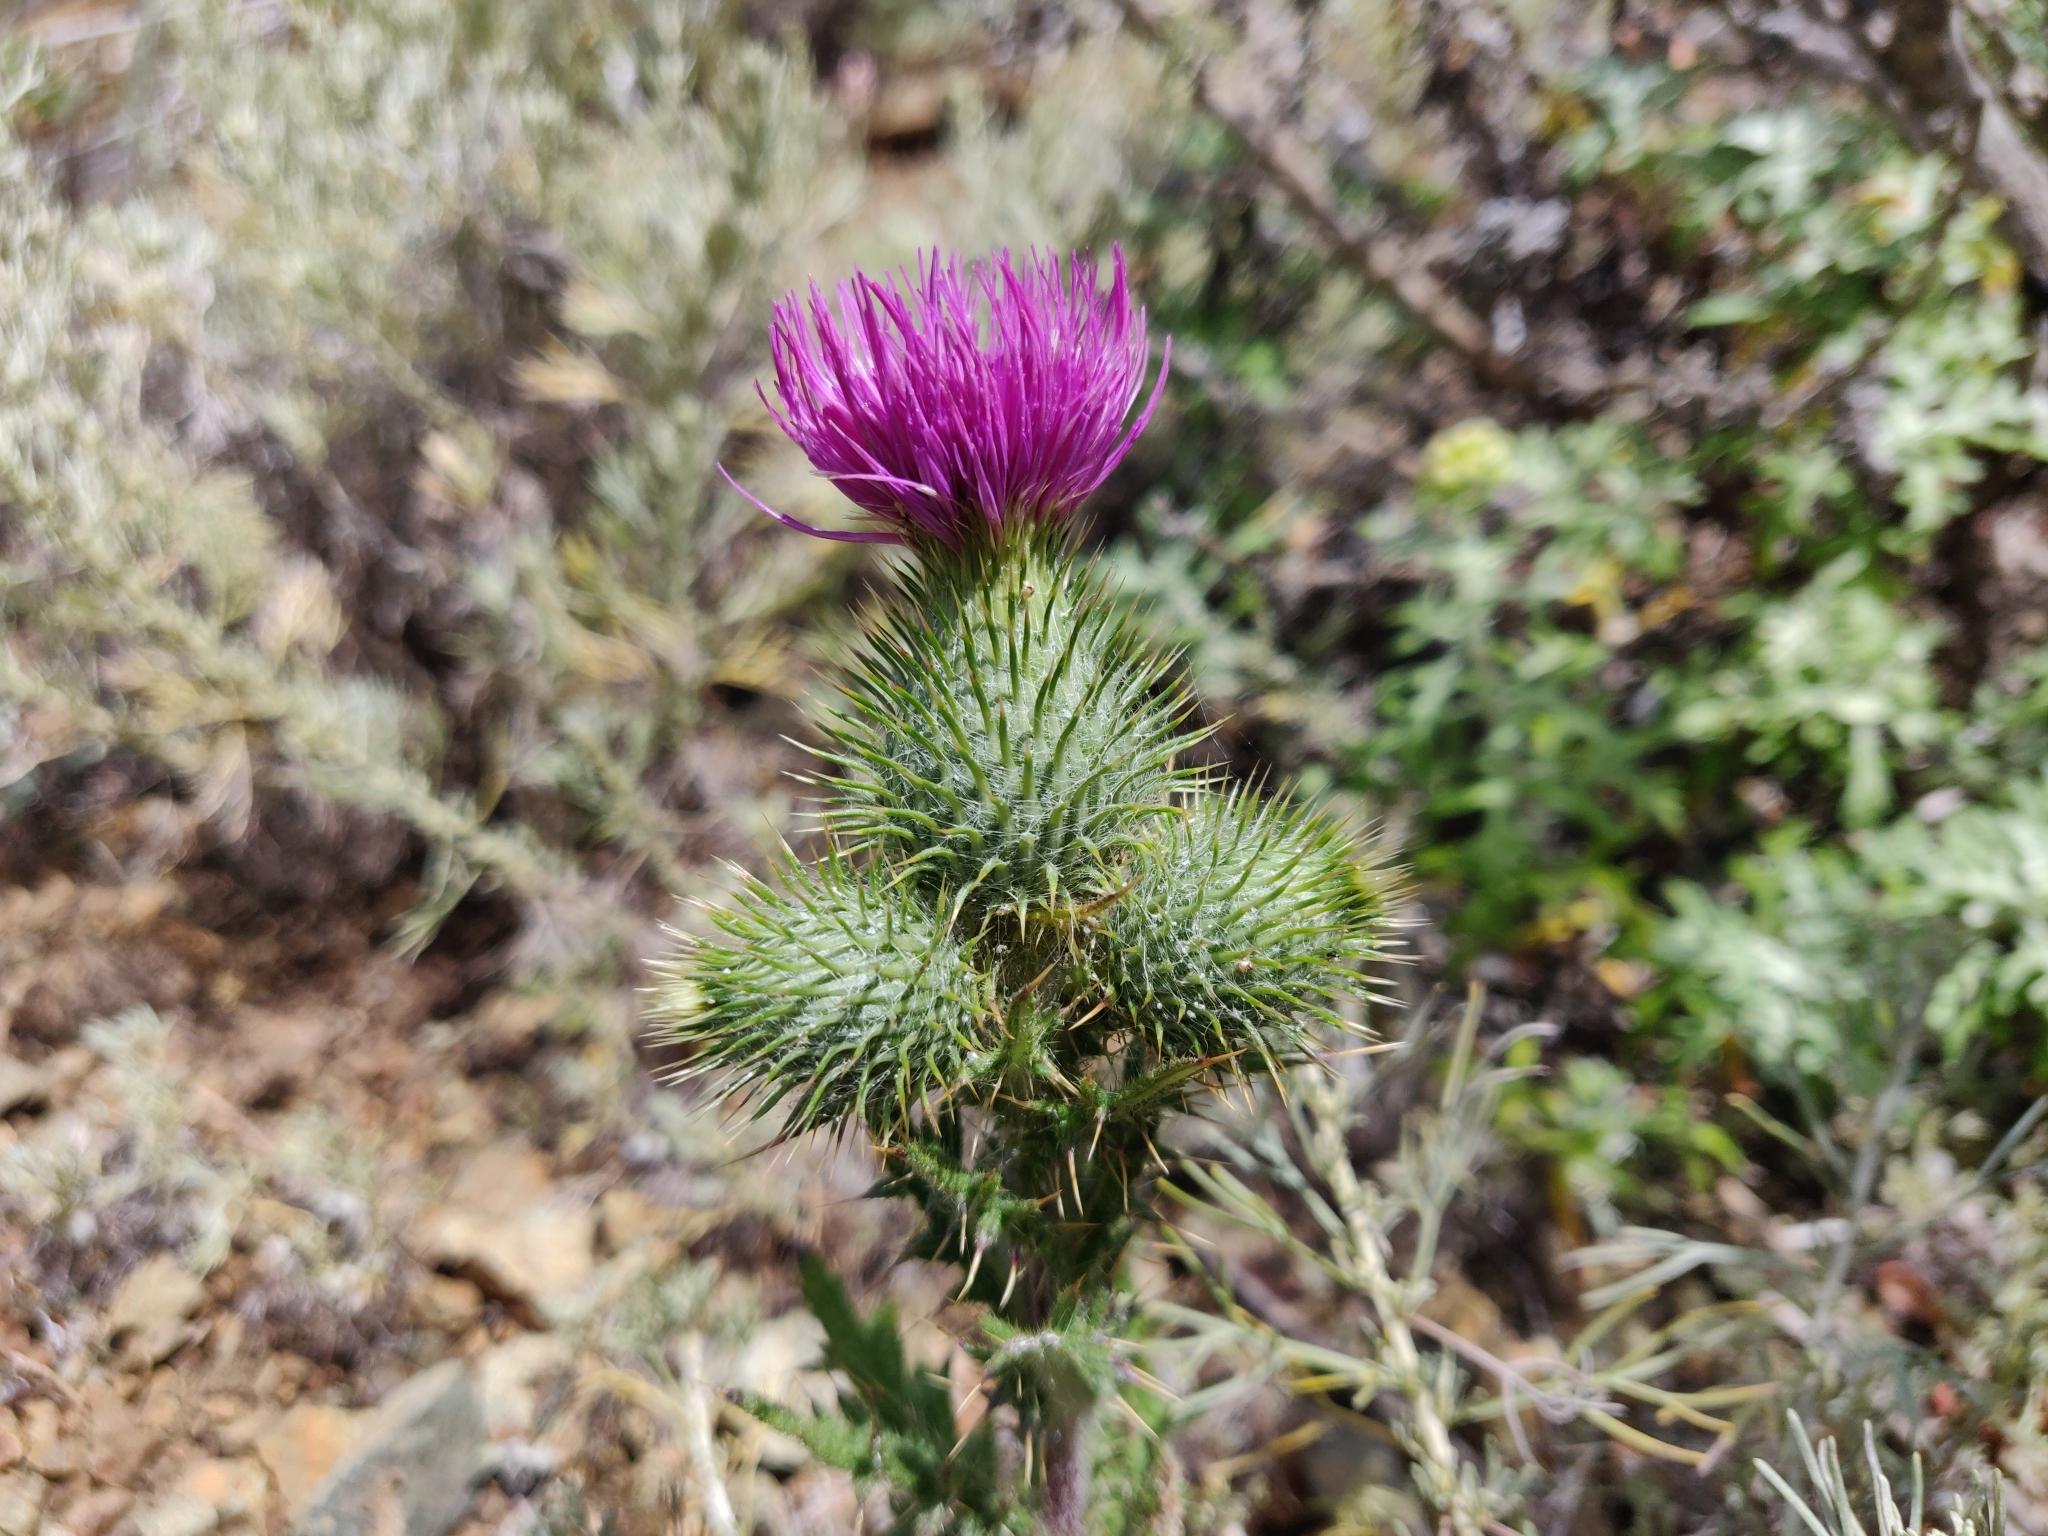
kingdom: Plantae
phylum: Tracheophyta
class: Magnoliopsida
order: Asterales
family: Asteraceae
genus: Cirsium
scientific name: Cirsium vulgare
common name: Bull thistle
